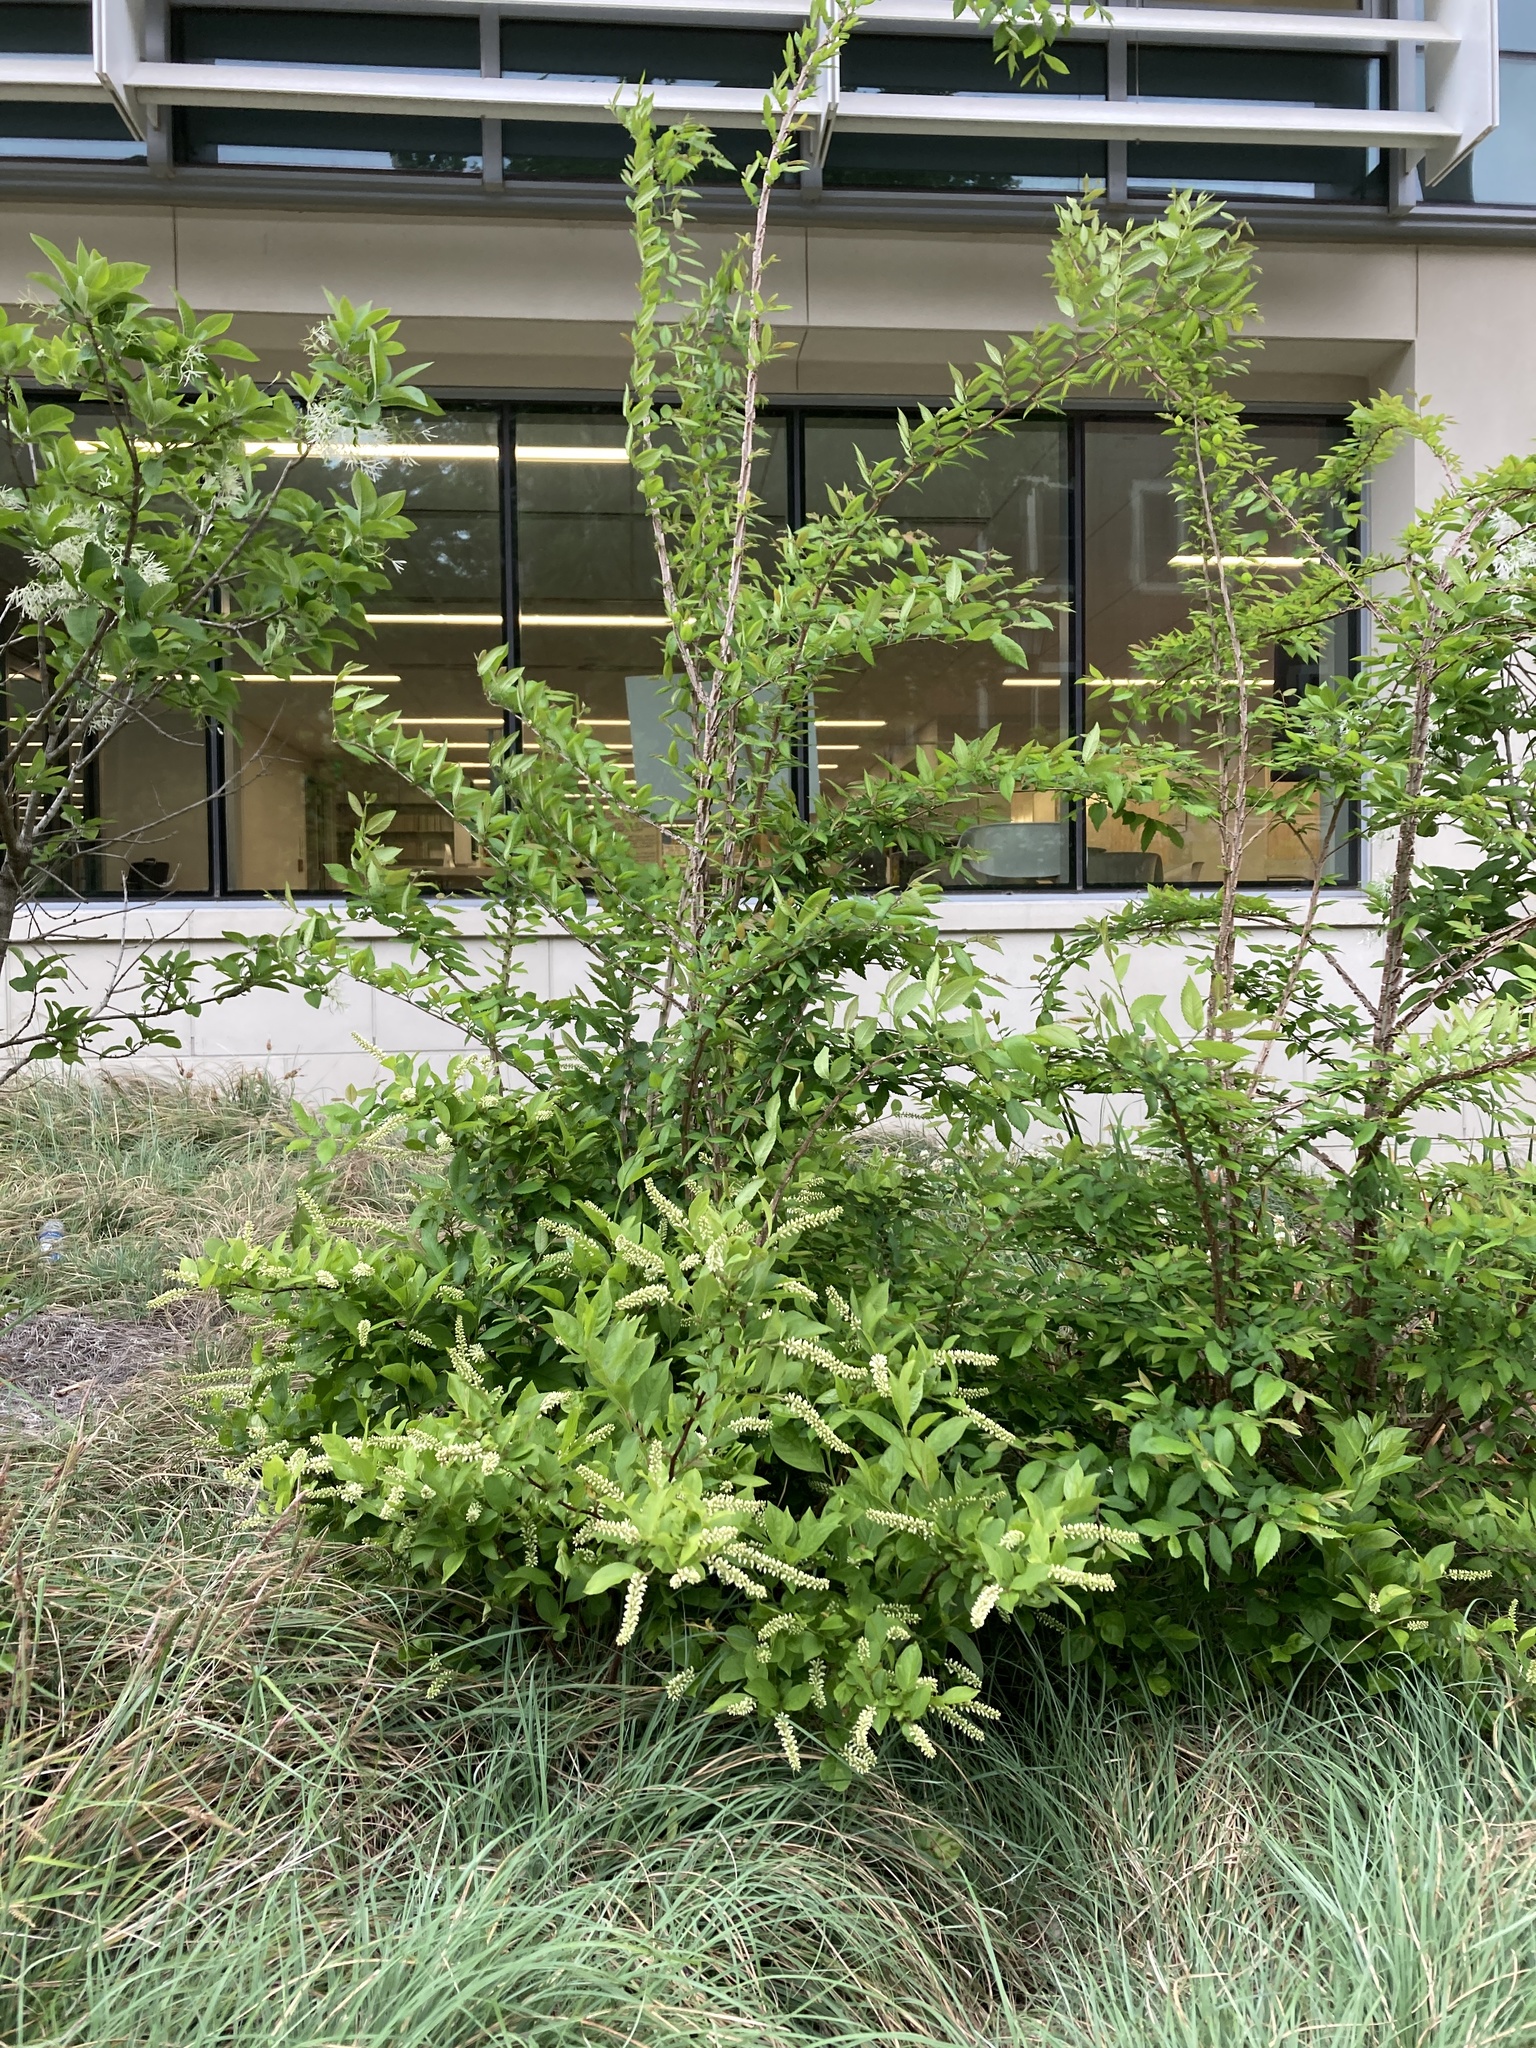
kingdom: Plantae
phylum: Tracheophyta
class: Magnoliopsida
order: Rosales
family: Ulmaceae
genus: Ulmus
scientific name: Ulmus alata
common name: Winged elm
